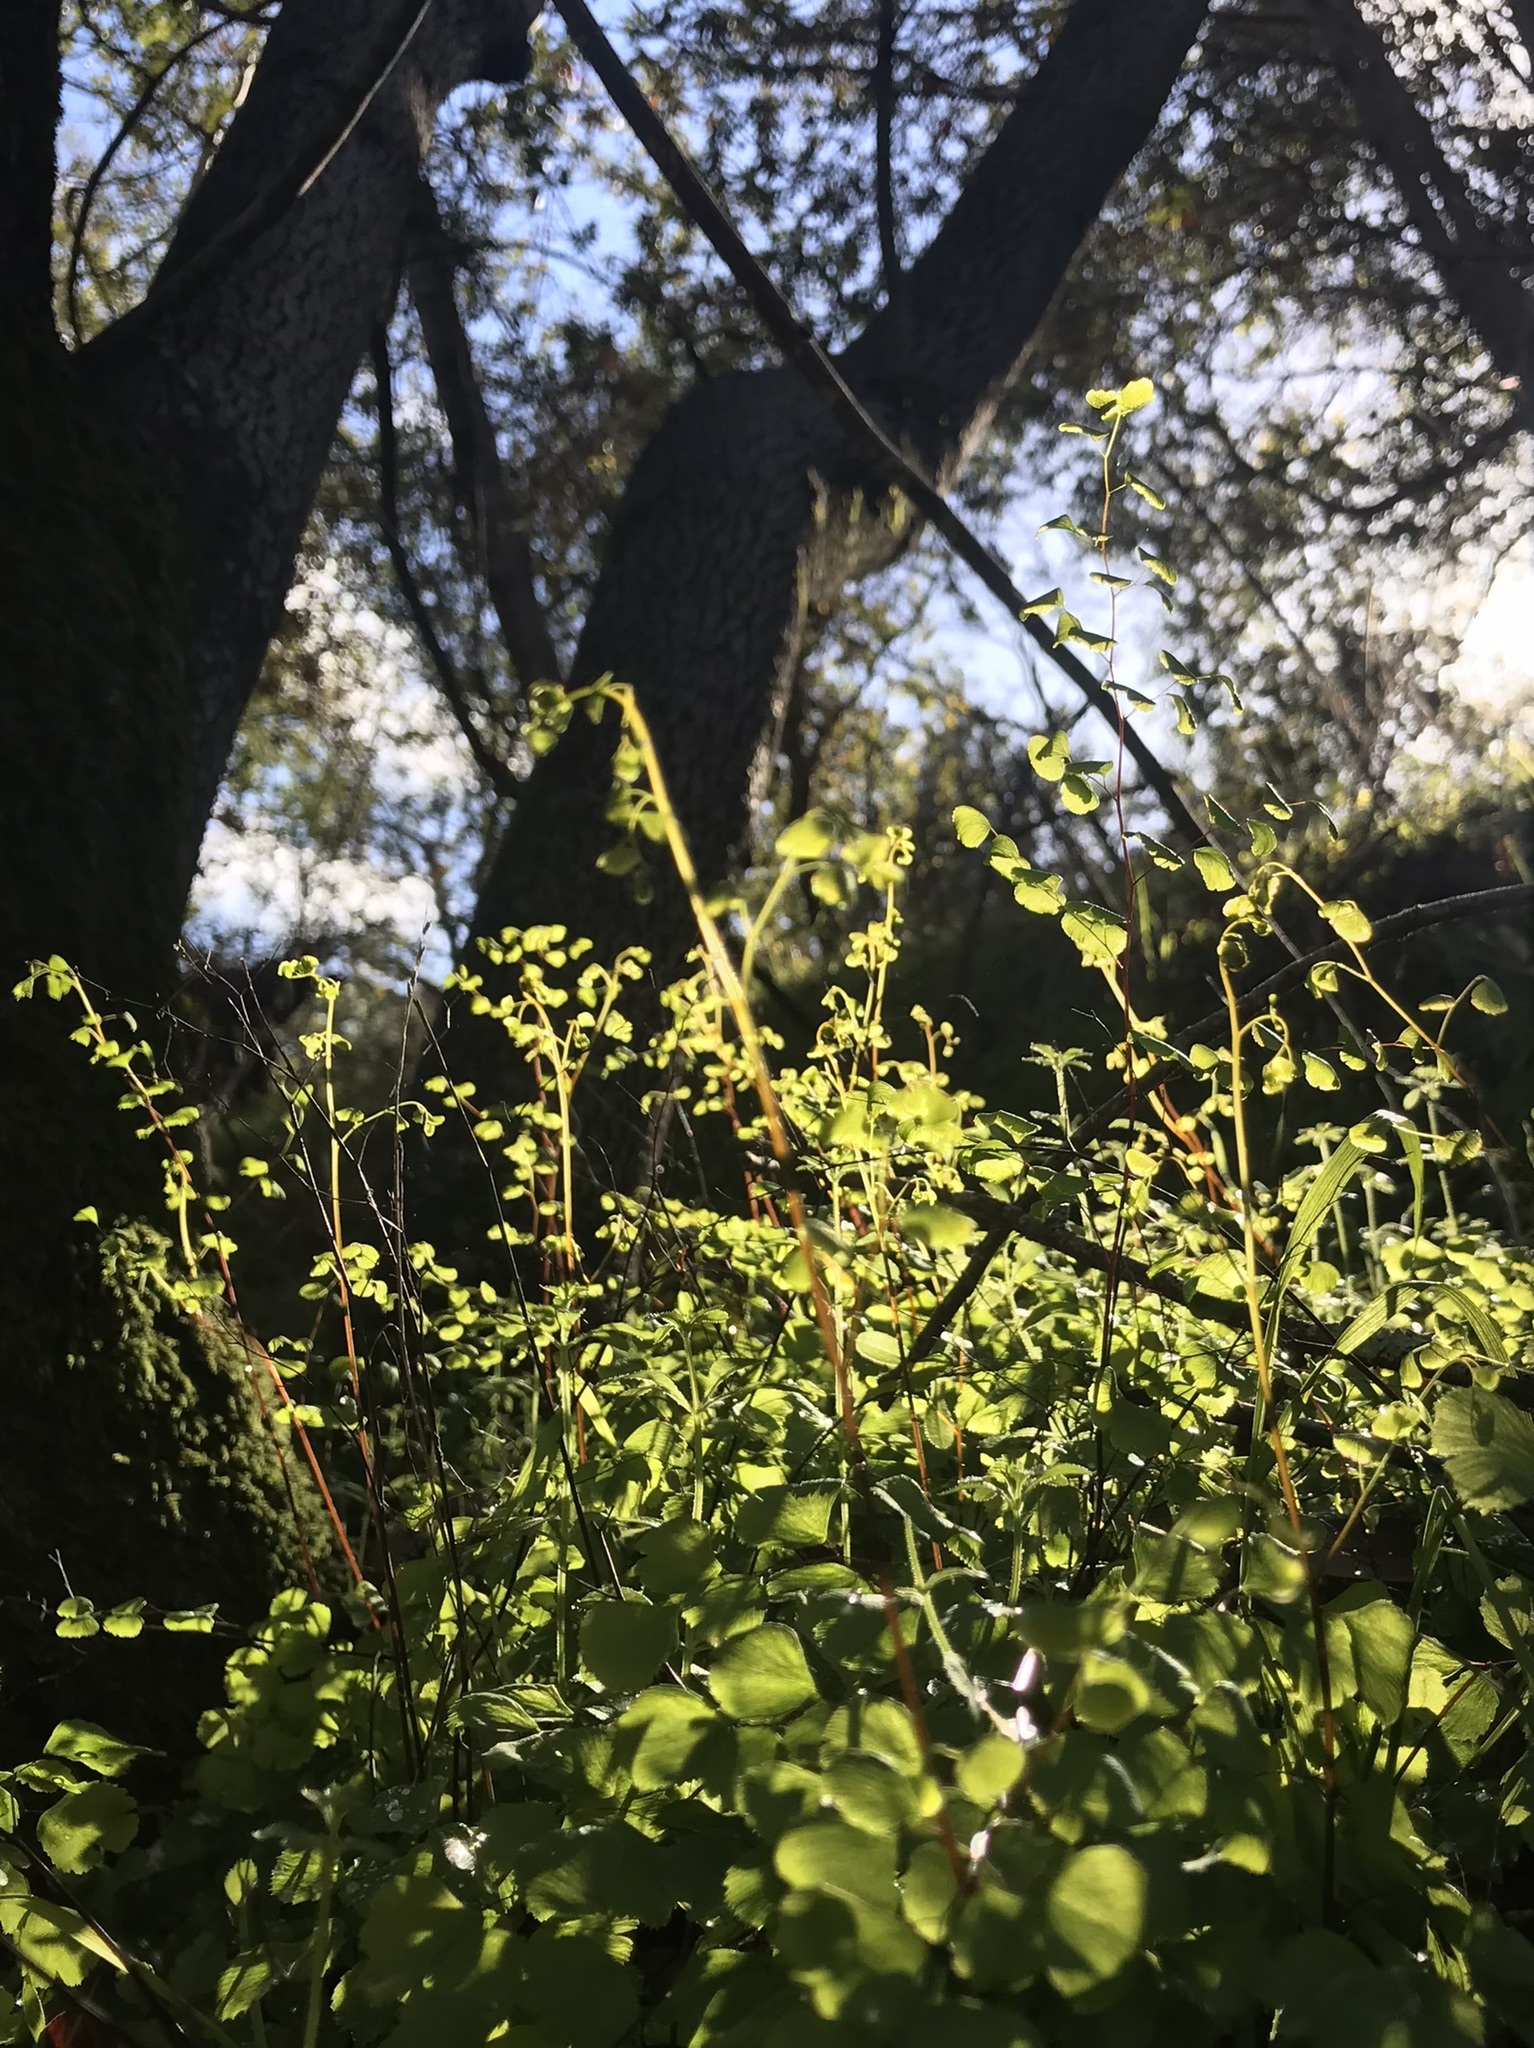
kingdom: Plantae
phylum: Tracheophyta
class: Polypodiopsida
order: Polypodiales
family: Pteridaceae
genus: Adiantum
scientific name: Adiantum jordanii
